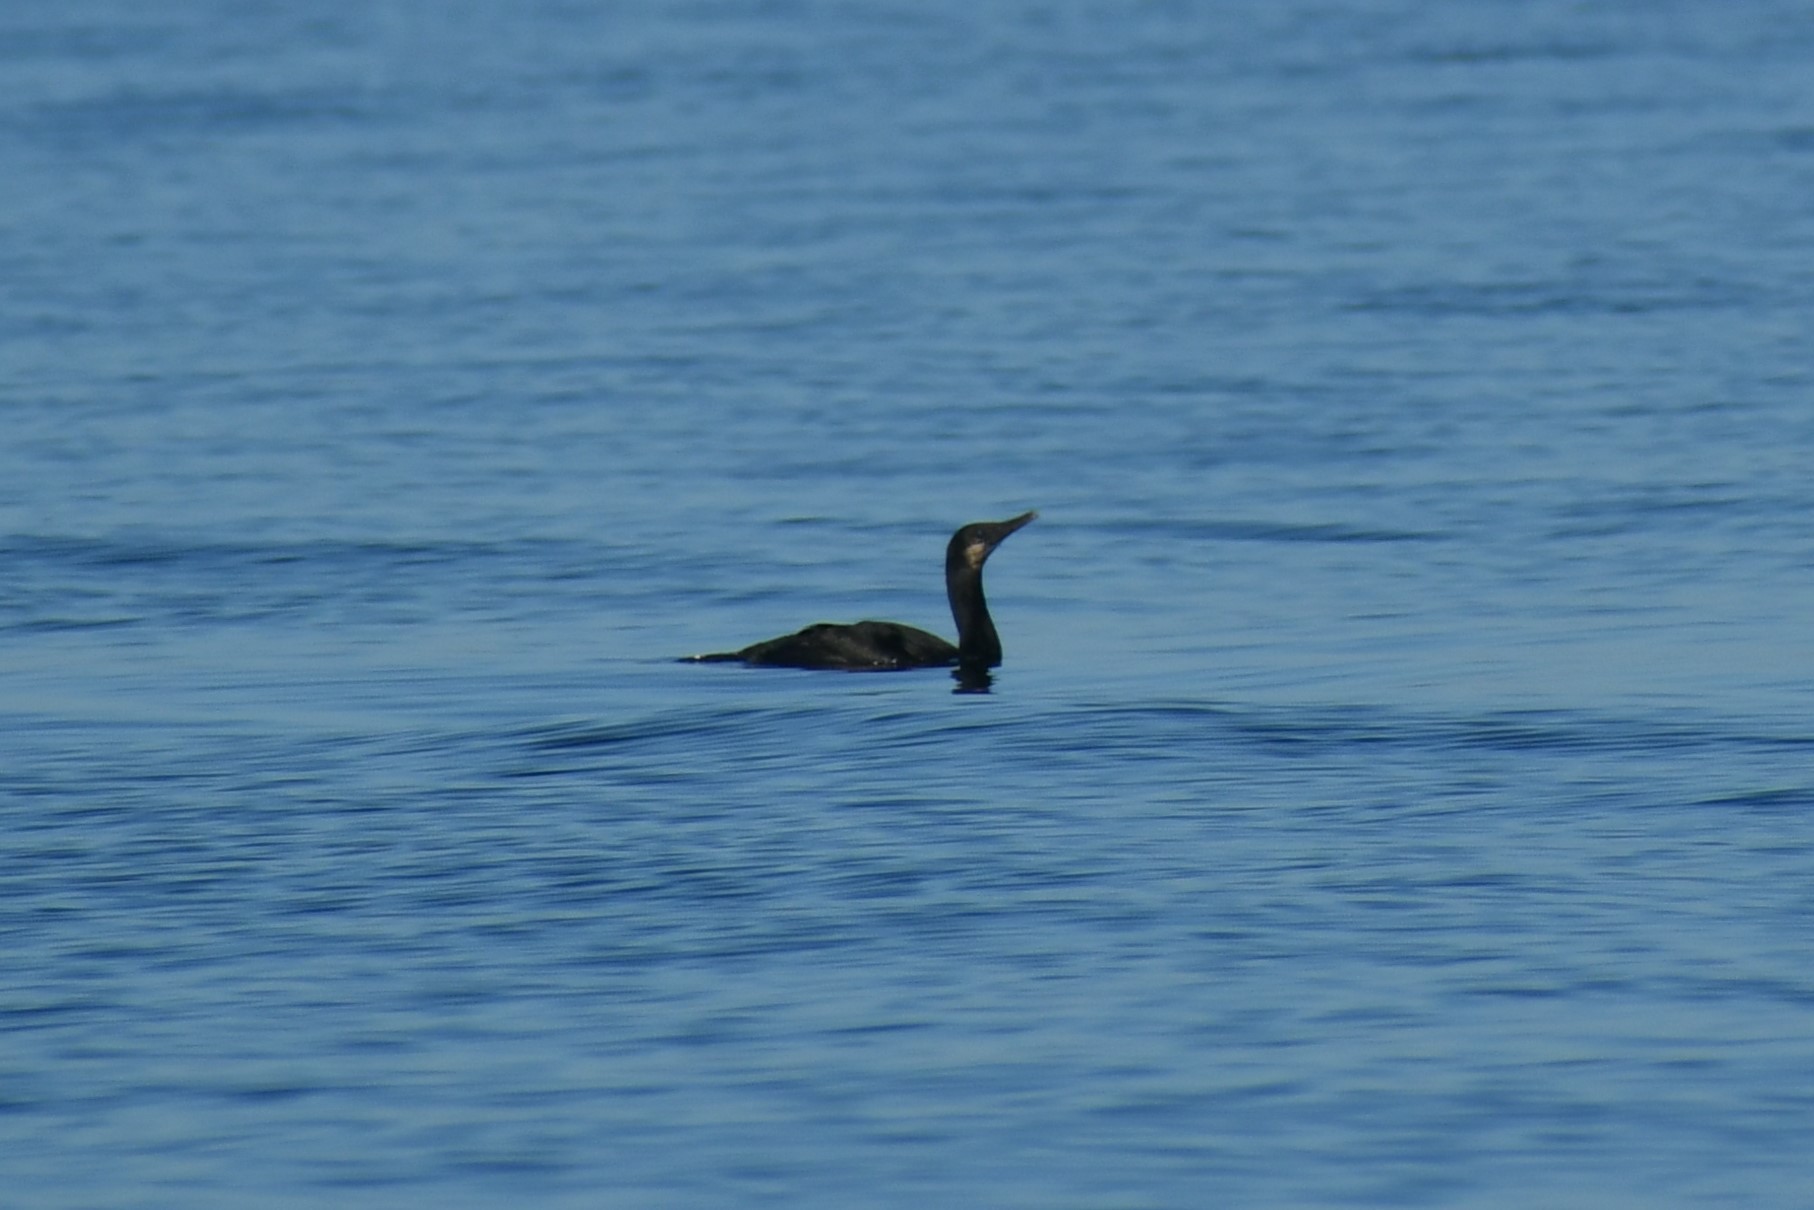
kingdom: Animalia
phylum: Chordata
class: Aves
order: Suliformes
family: Phalacrocoracidae
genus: Urile
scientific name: Urile penicillatus
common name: Brandt's cormorant
